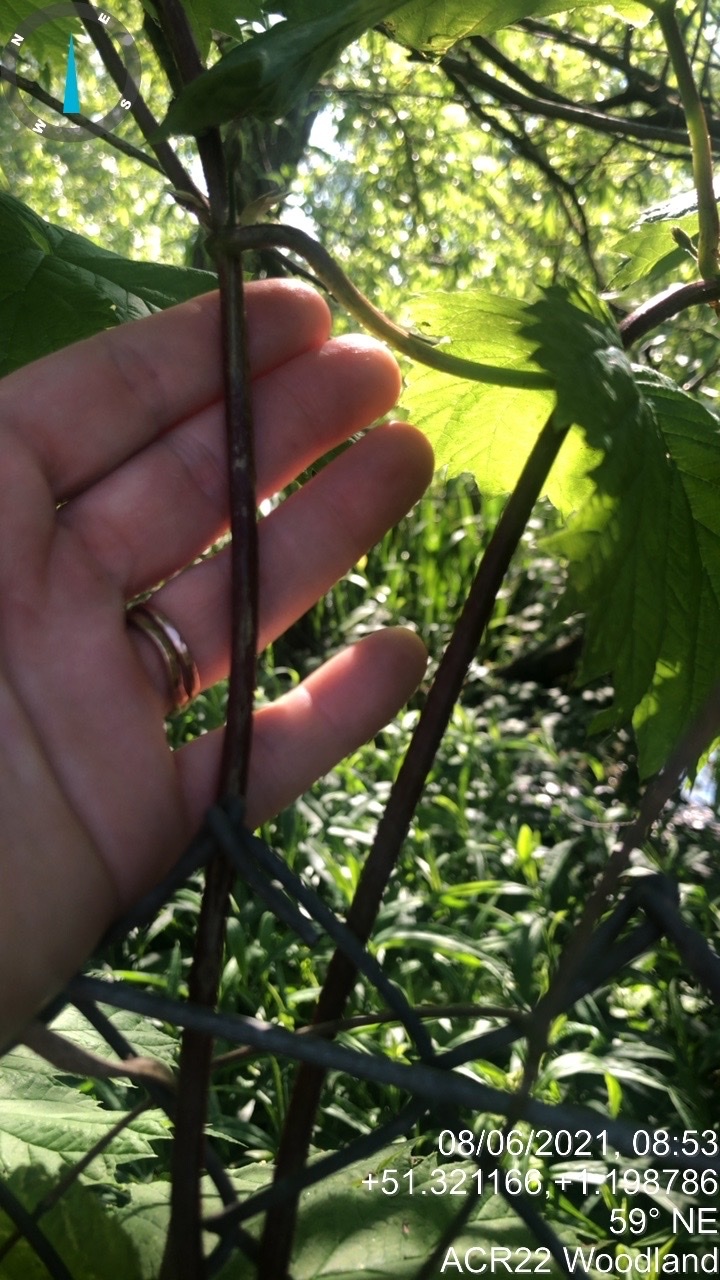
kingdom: Plantae
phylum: Tracheophyta
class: Magnoliopsida
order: Rosales
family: Cannabaceae
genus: Humulus
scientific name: Humulus lupulus
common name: Hop
